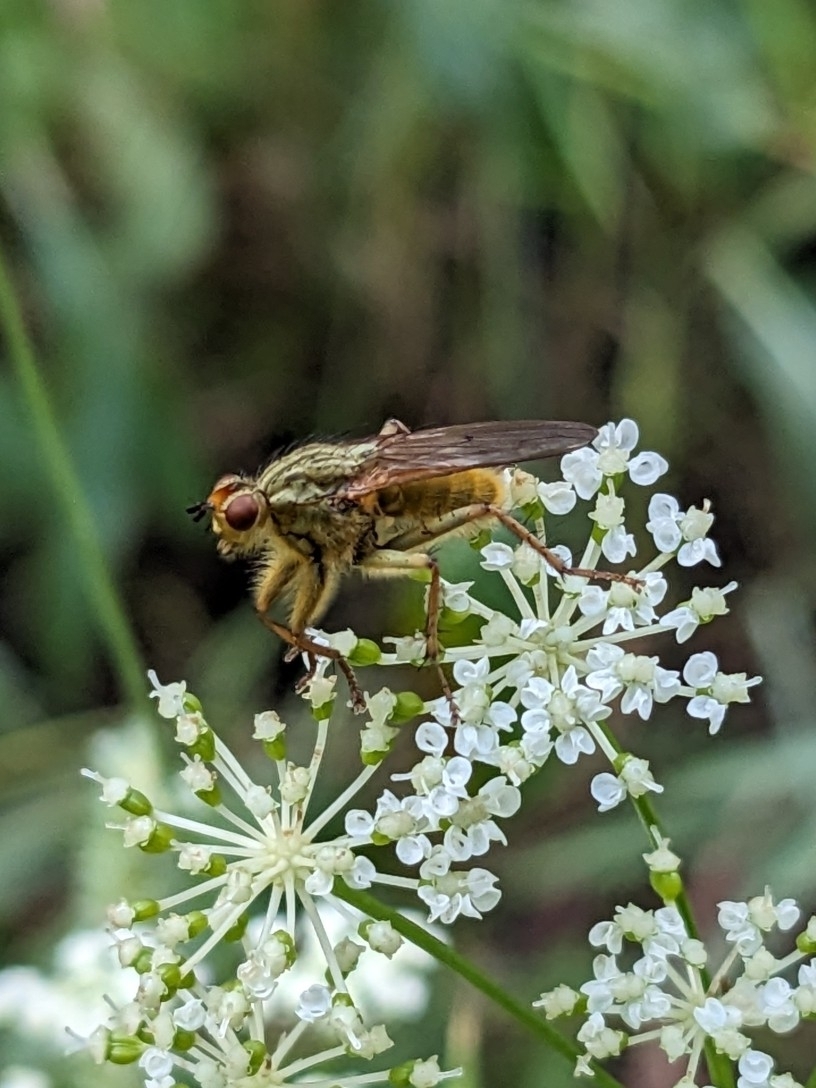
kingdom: Animalia
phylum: Arthropoda
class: Insecta
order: Diptera
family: Scathophagidae
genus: Scathophaga
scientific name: Scathophaga stercoraria
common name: Yellow dung fly
